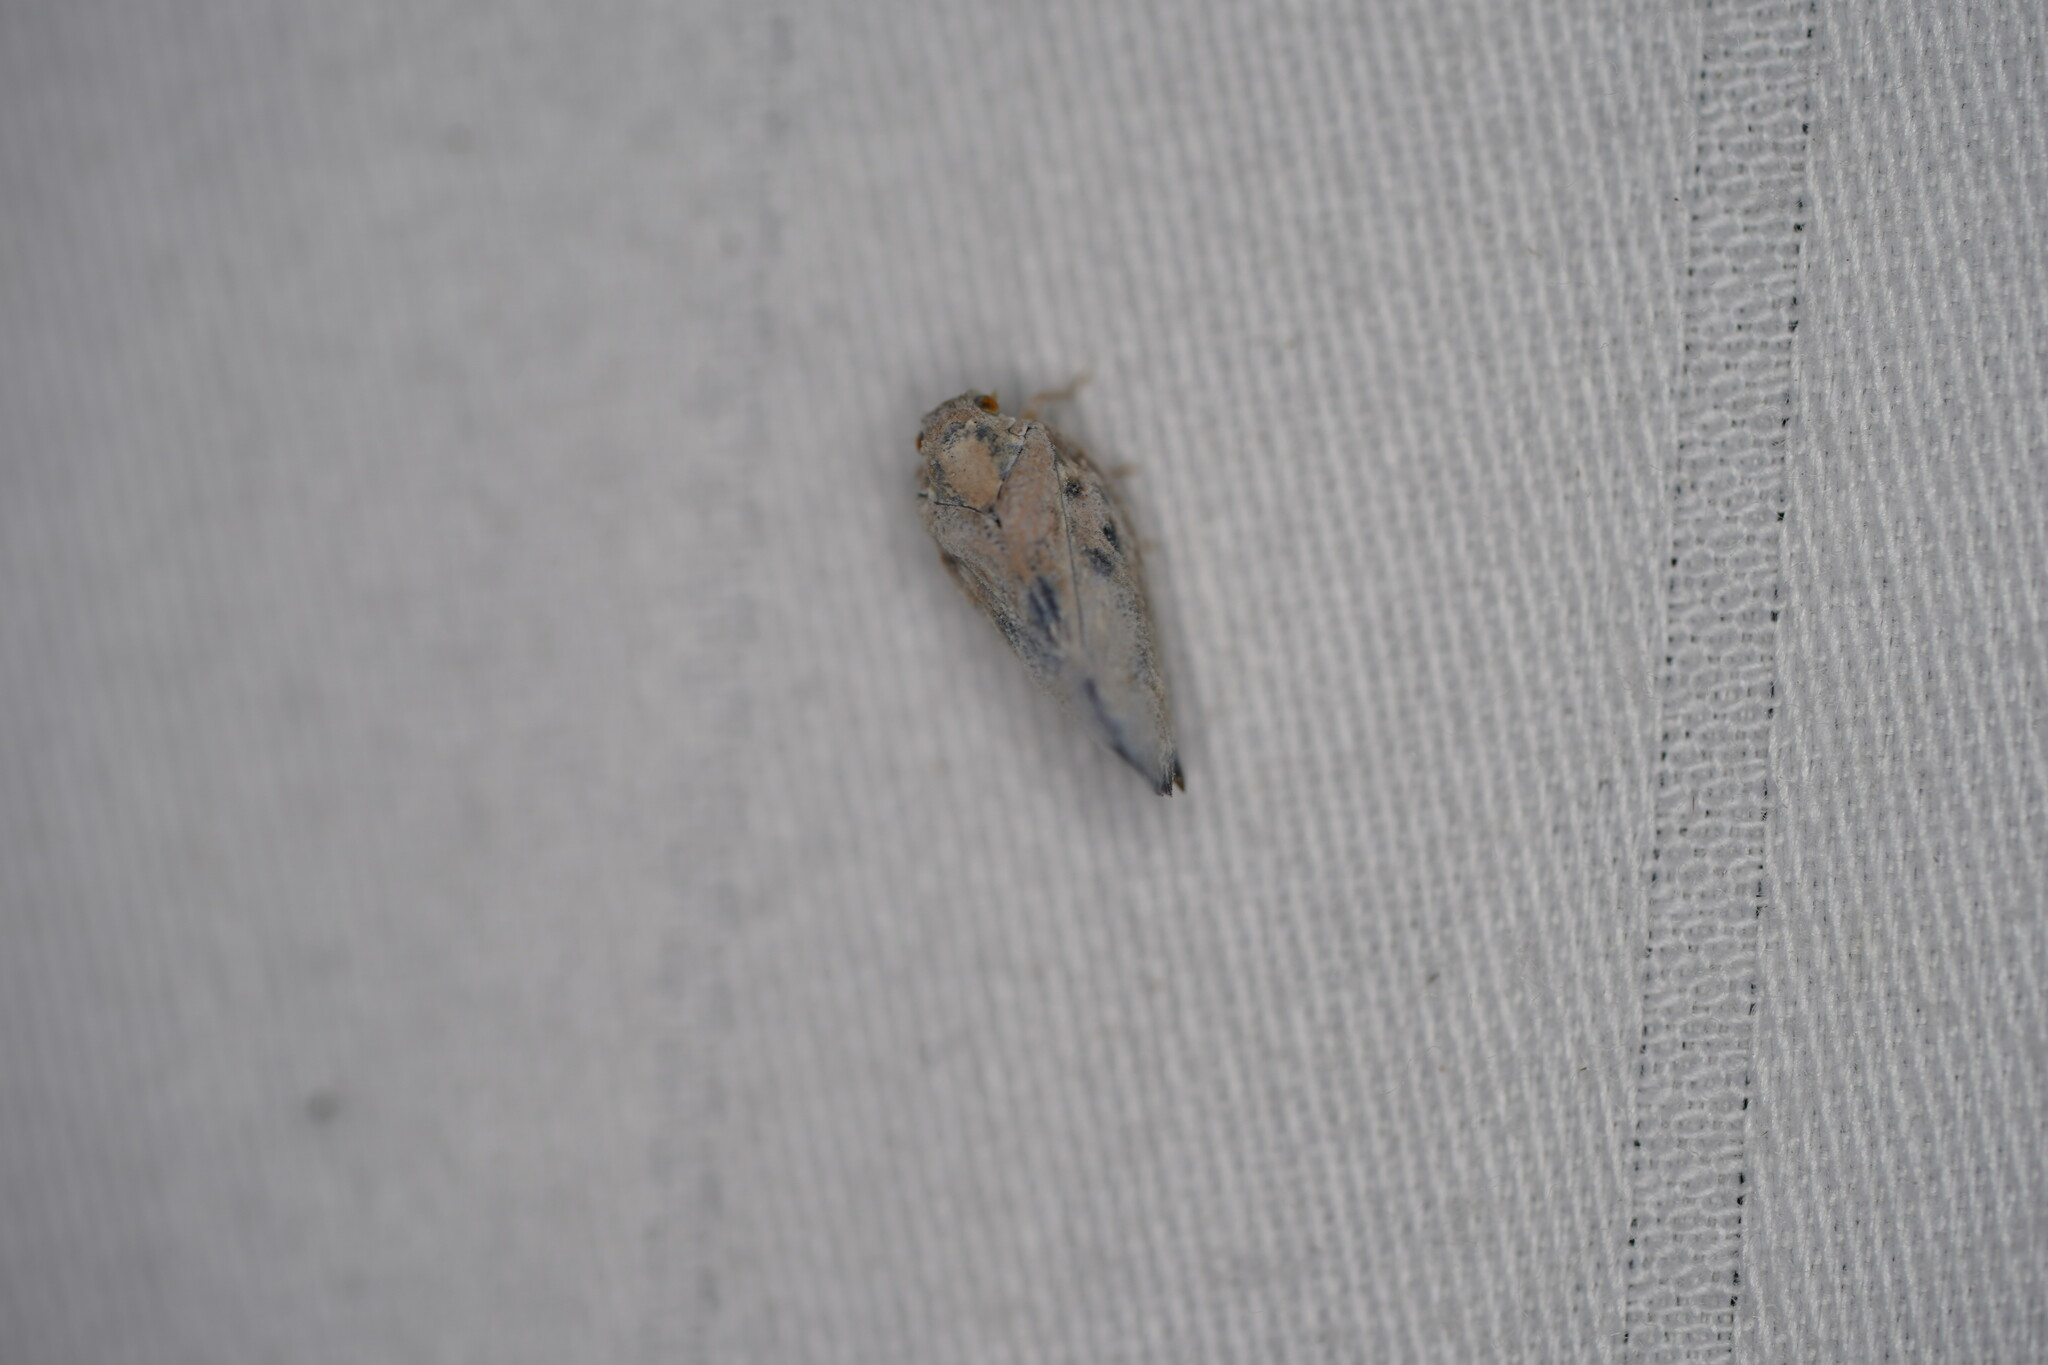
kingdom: Animalia
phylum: Arthropoda
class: Insecta
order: Hemiptera
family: Flatidae
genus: Metcalfa
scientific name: Metcalfa pruinosa
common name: Citrus flatid planthopper
